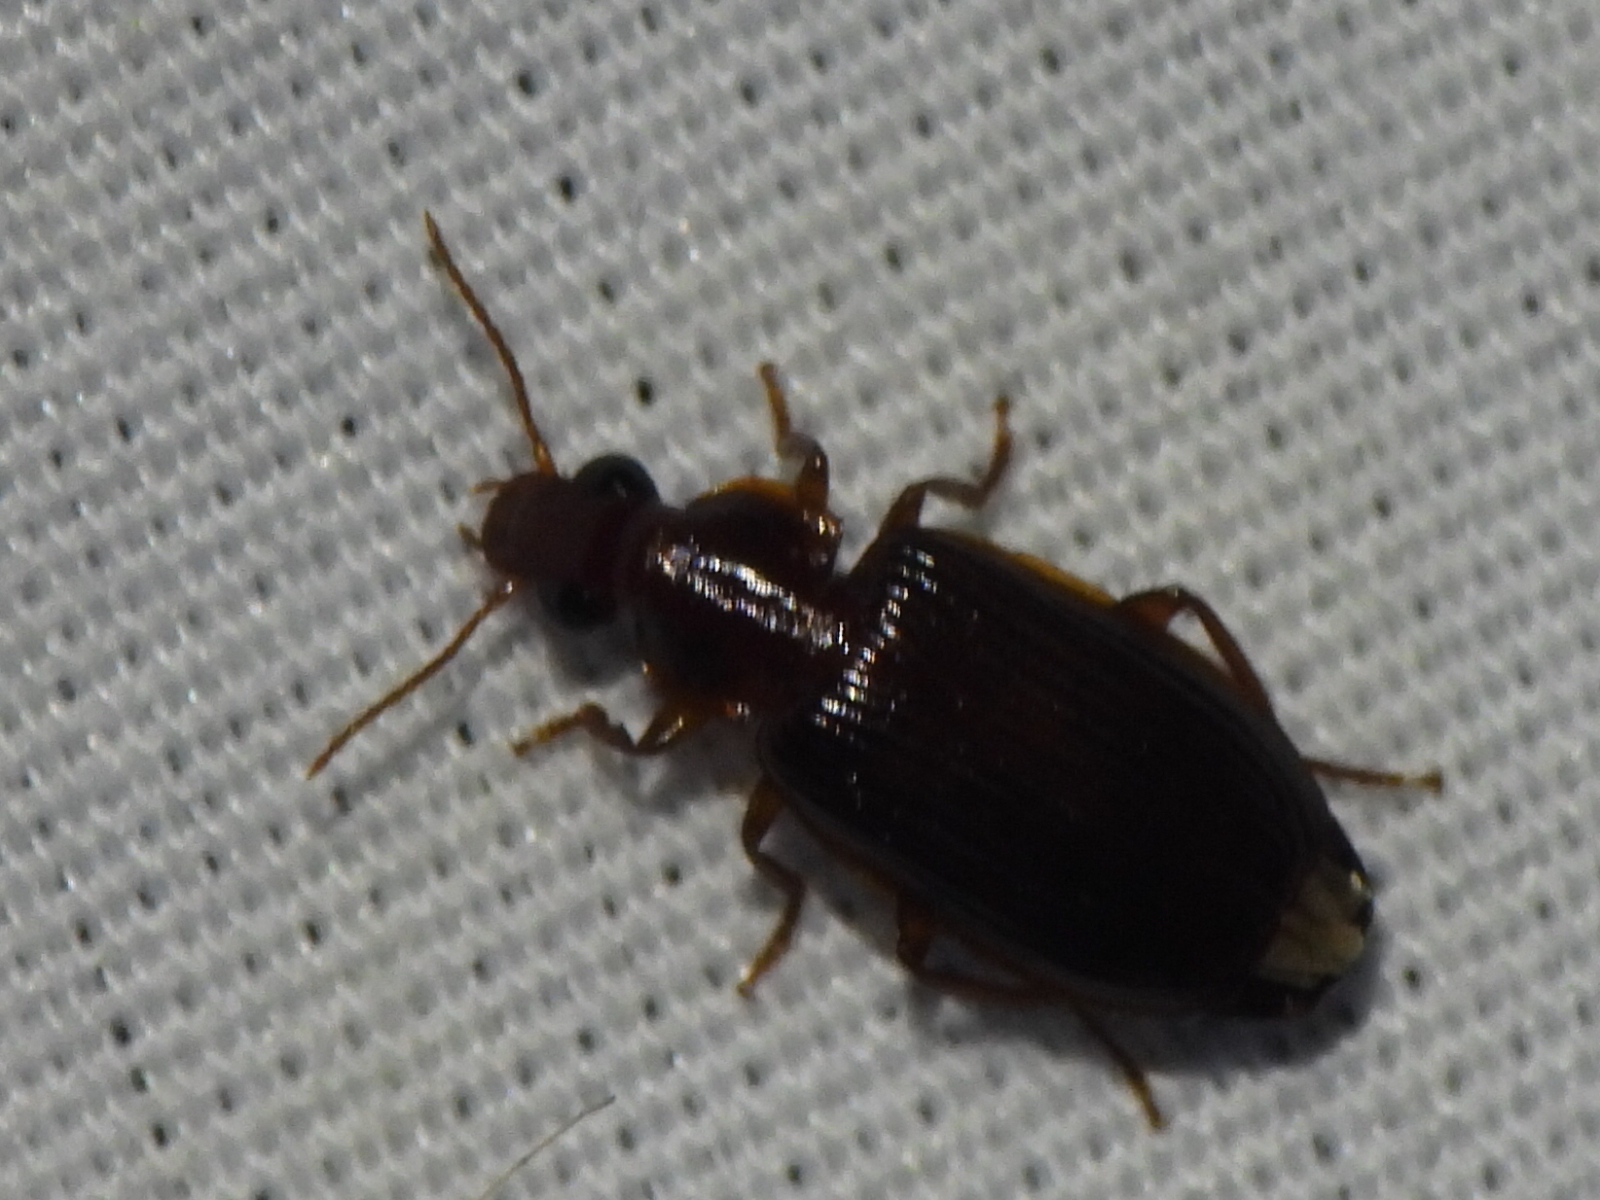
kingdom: Animalia
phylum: Arthropoda
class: Insecta
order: Coleoptera
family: Carabidae
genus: Plochionus
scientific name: Plochionus timidus
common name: Timid harp ground beetle
